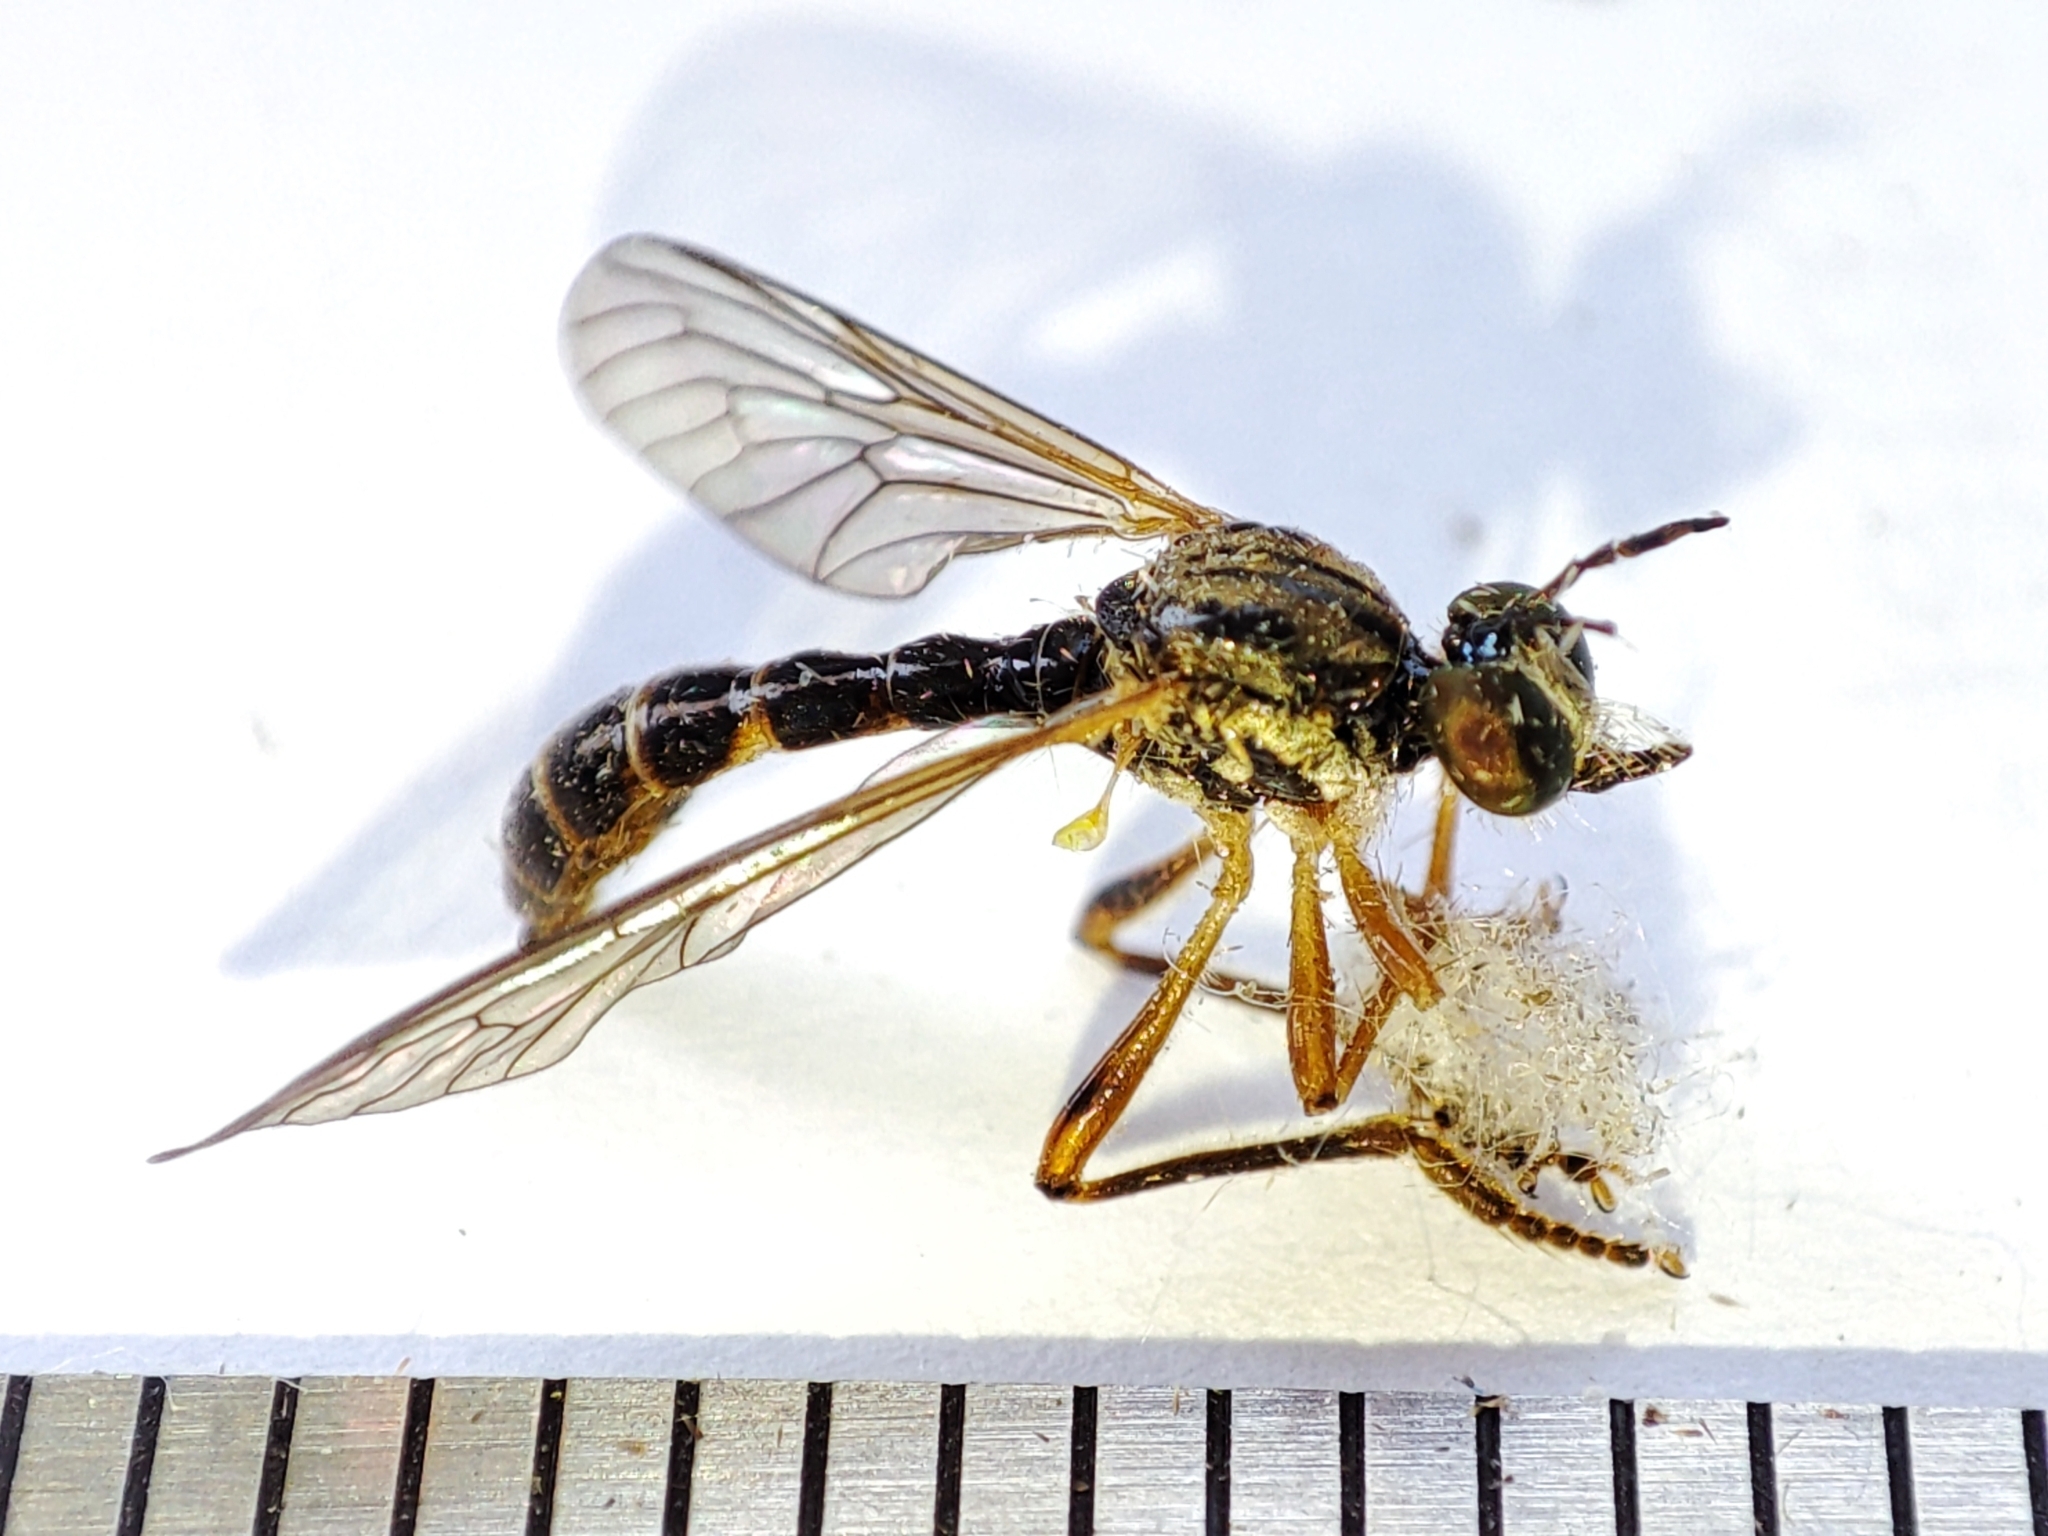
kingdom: Animalia
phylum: Arthropoda
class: Insecta
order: Diptera
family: Asilidae
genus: Dioctria
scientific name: Dioctria linearis
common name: Small yellow-legged robberfly
